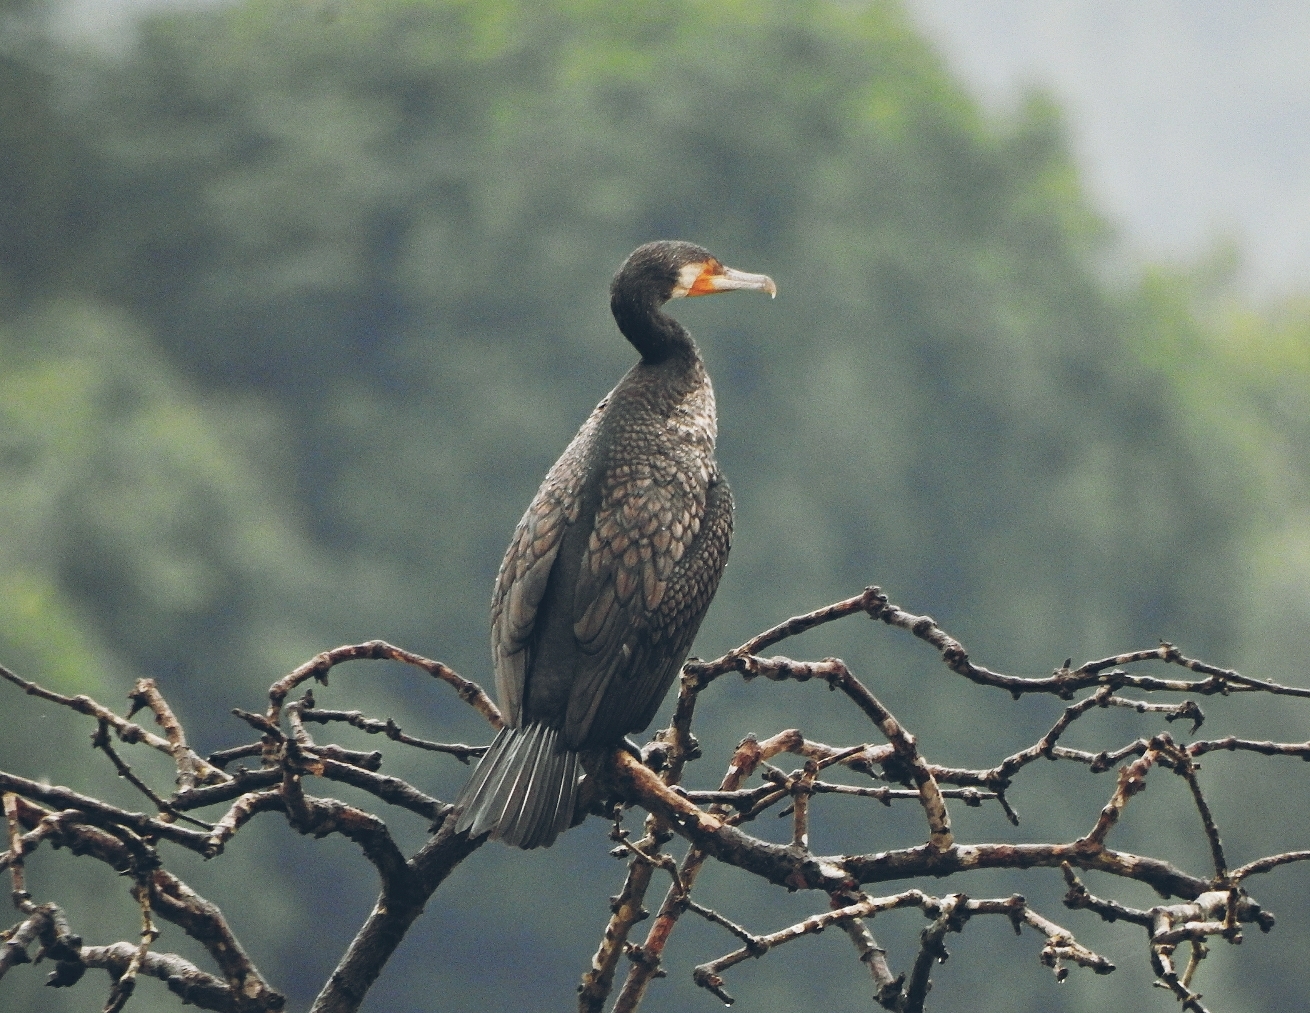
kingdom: Animalia
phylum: Chordata
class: Aves
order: Suliformes
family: Phalacrocoracidae
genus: Phalacrocorax
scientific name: Phalacrocorax carbo
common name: Great cormorant
